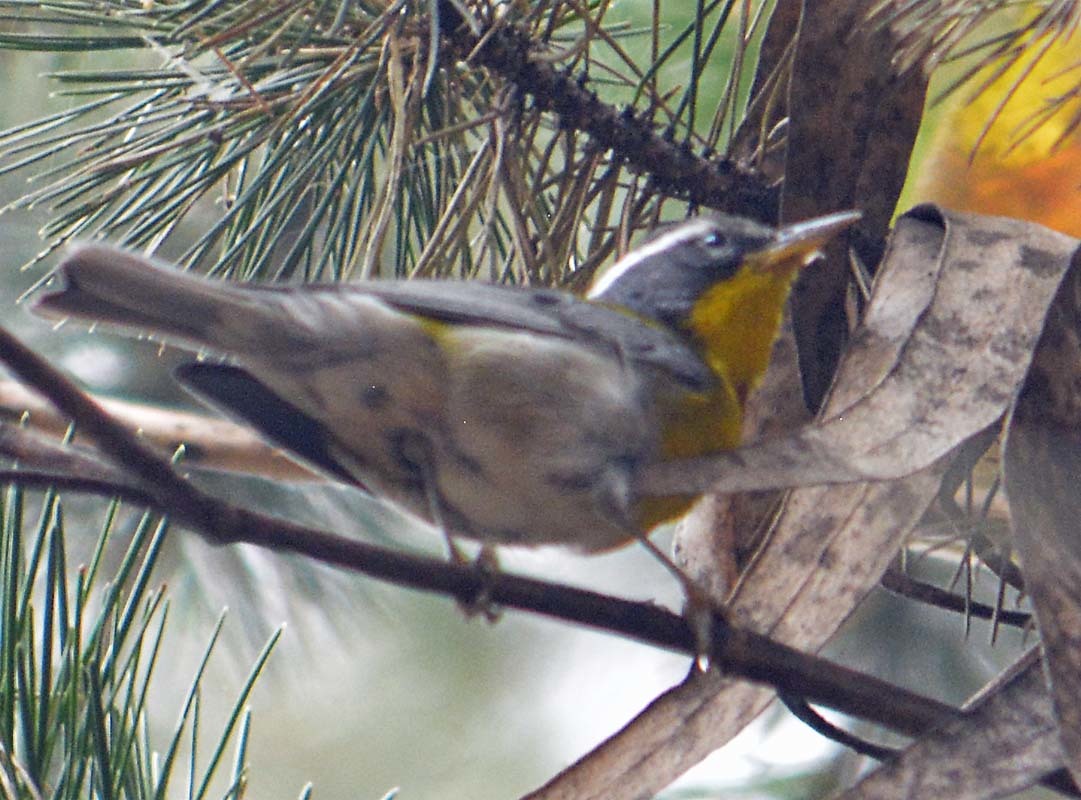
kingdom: Animalia
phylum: Chordata
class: Aves
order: Passeriformes
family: Parulidae
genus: Oreothlypis
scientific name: Oreothlypis superciliosa
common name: Crescent-chested warbler
